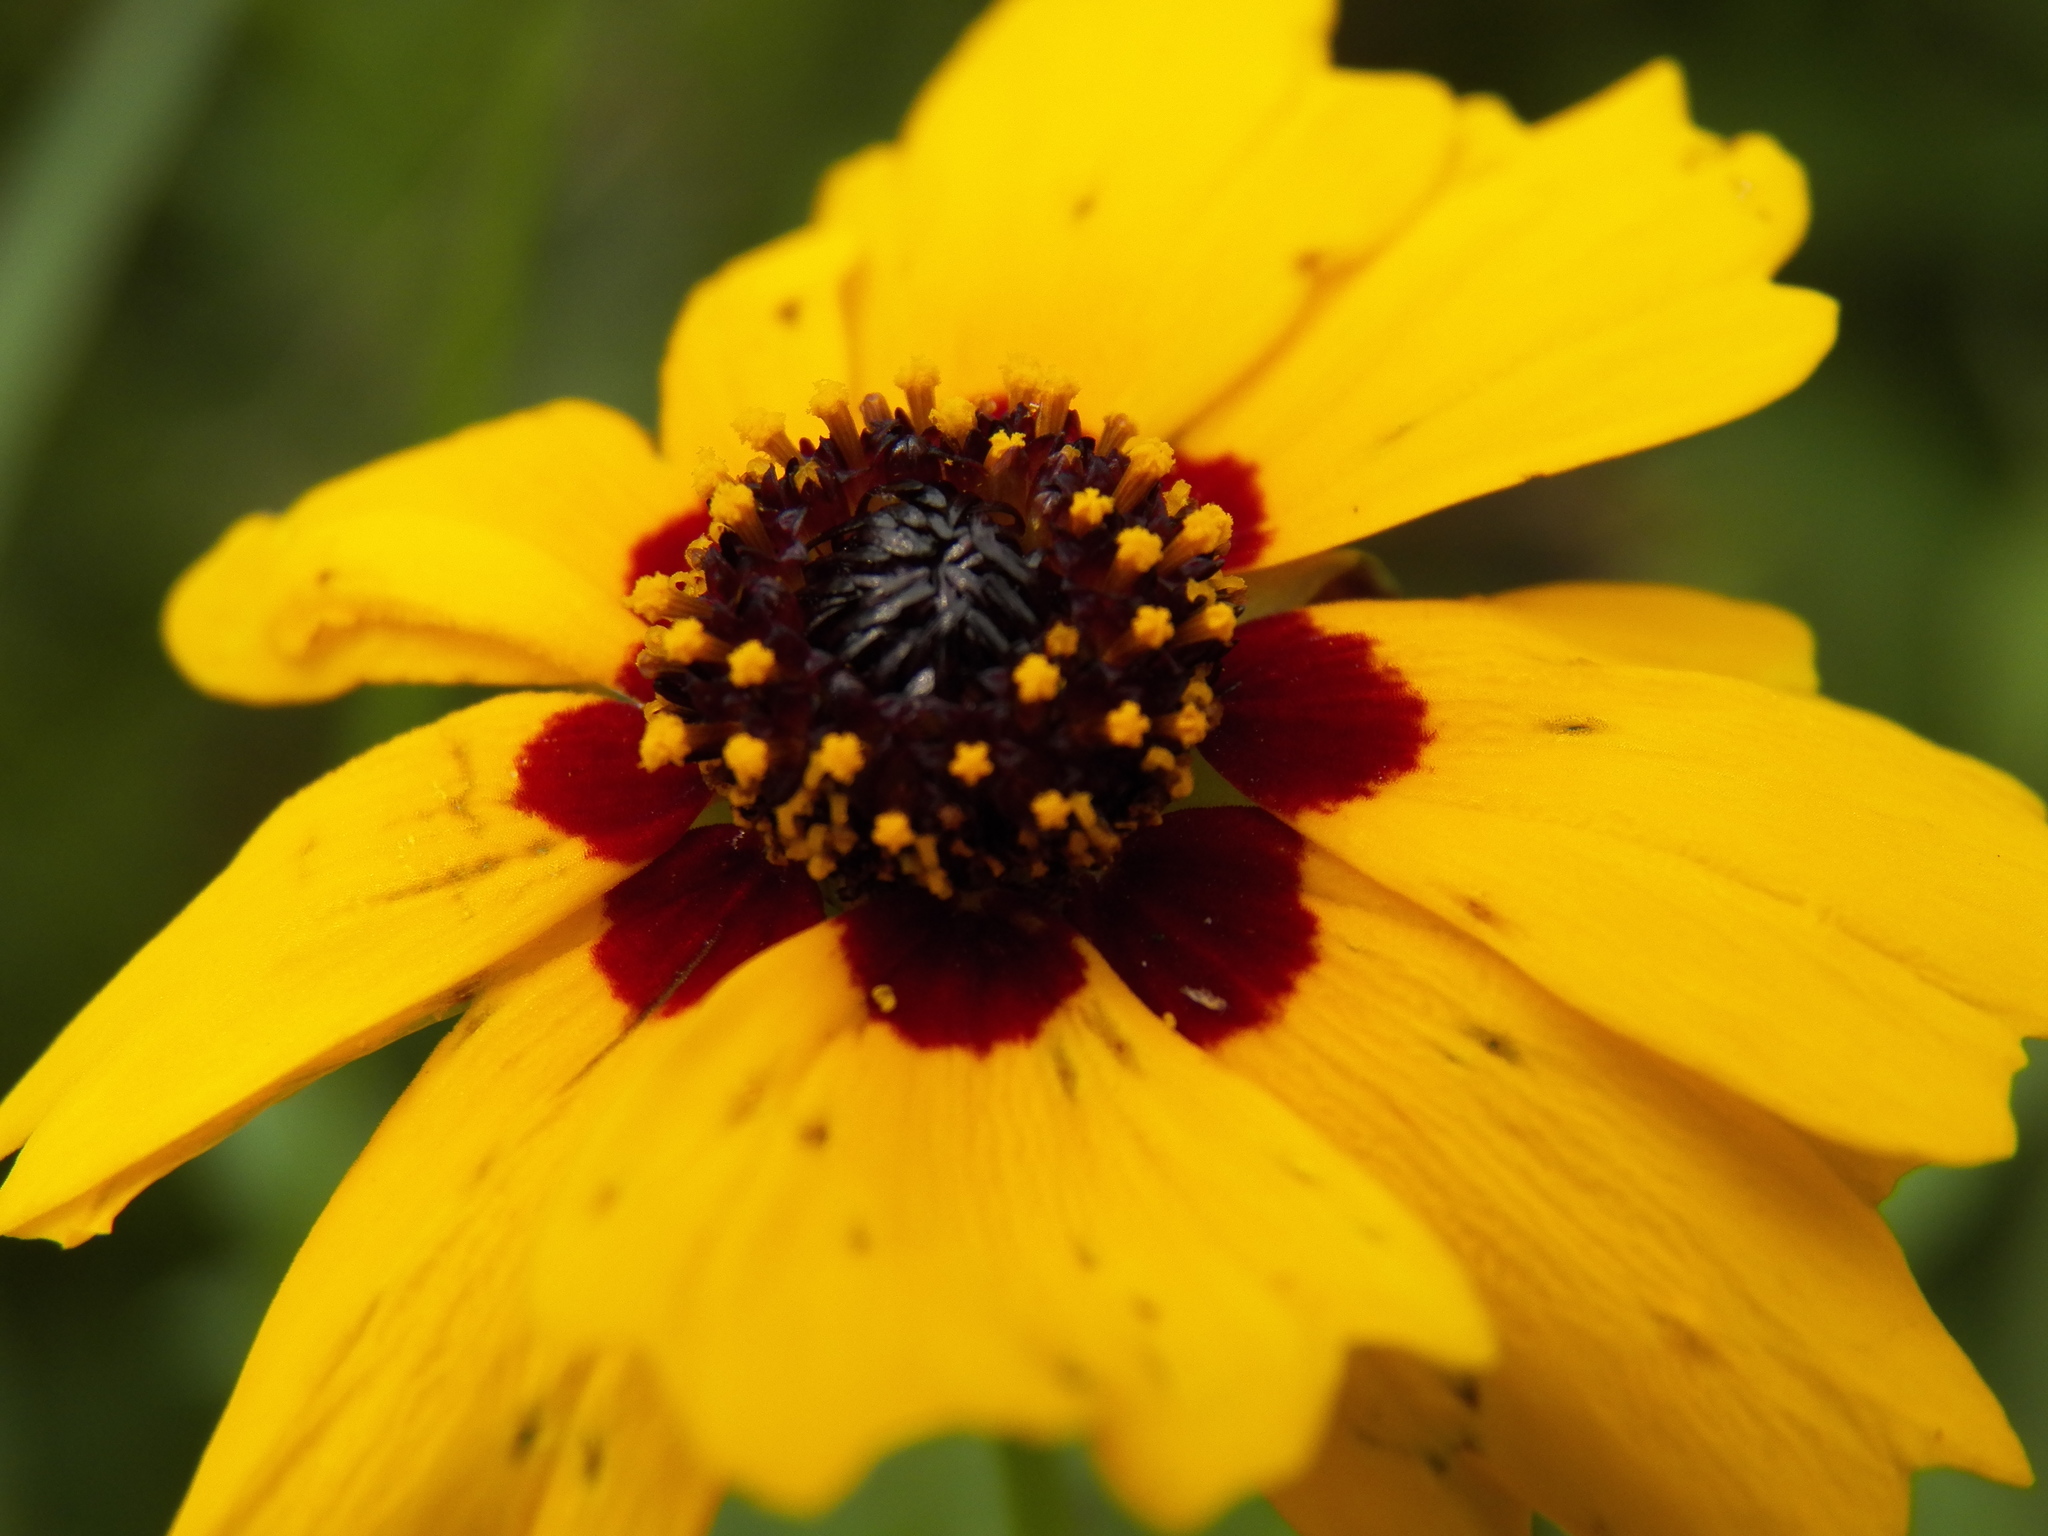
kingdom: Plantae
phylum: Tracheophyta
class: Magnoliopsida
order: Asterales
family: Asteraceae
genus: Coreopsis
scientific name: Coreopsis tinctoria
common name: Garden tickseed
